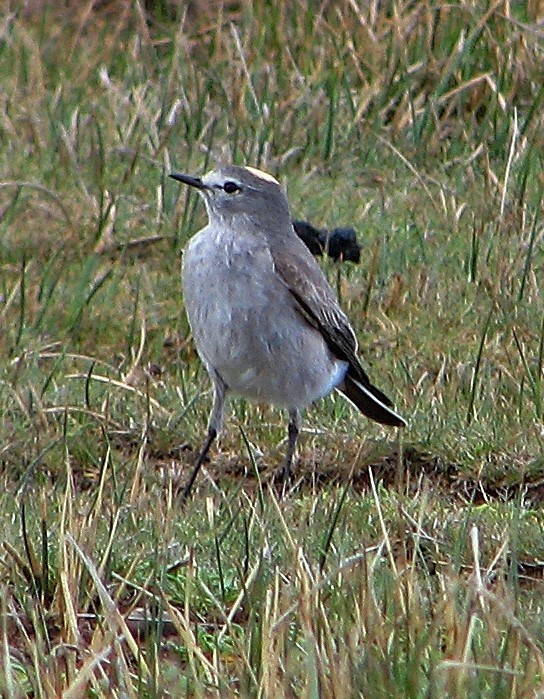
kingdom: Animalia
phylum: Chordata
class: Aves
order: Passeriformes
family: Tyrannidae
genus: Muscisaxicola
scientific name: Muscisaxicola flavinucha
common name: Ochre-naped ground tyrant
